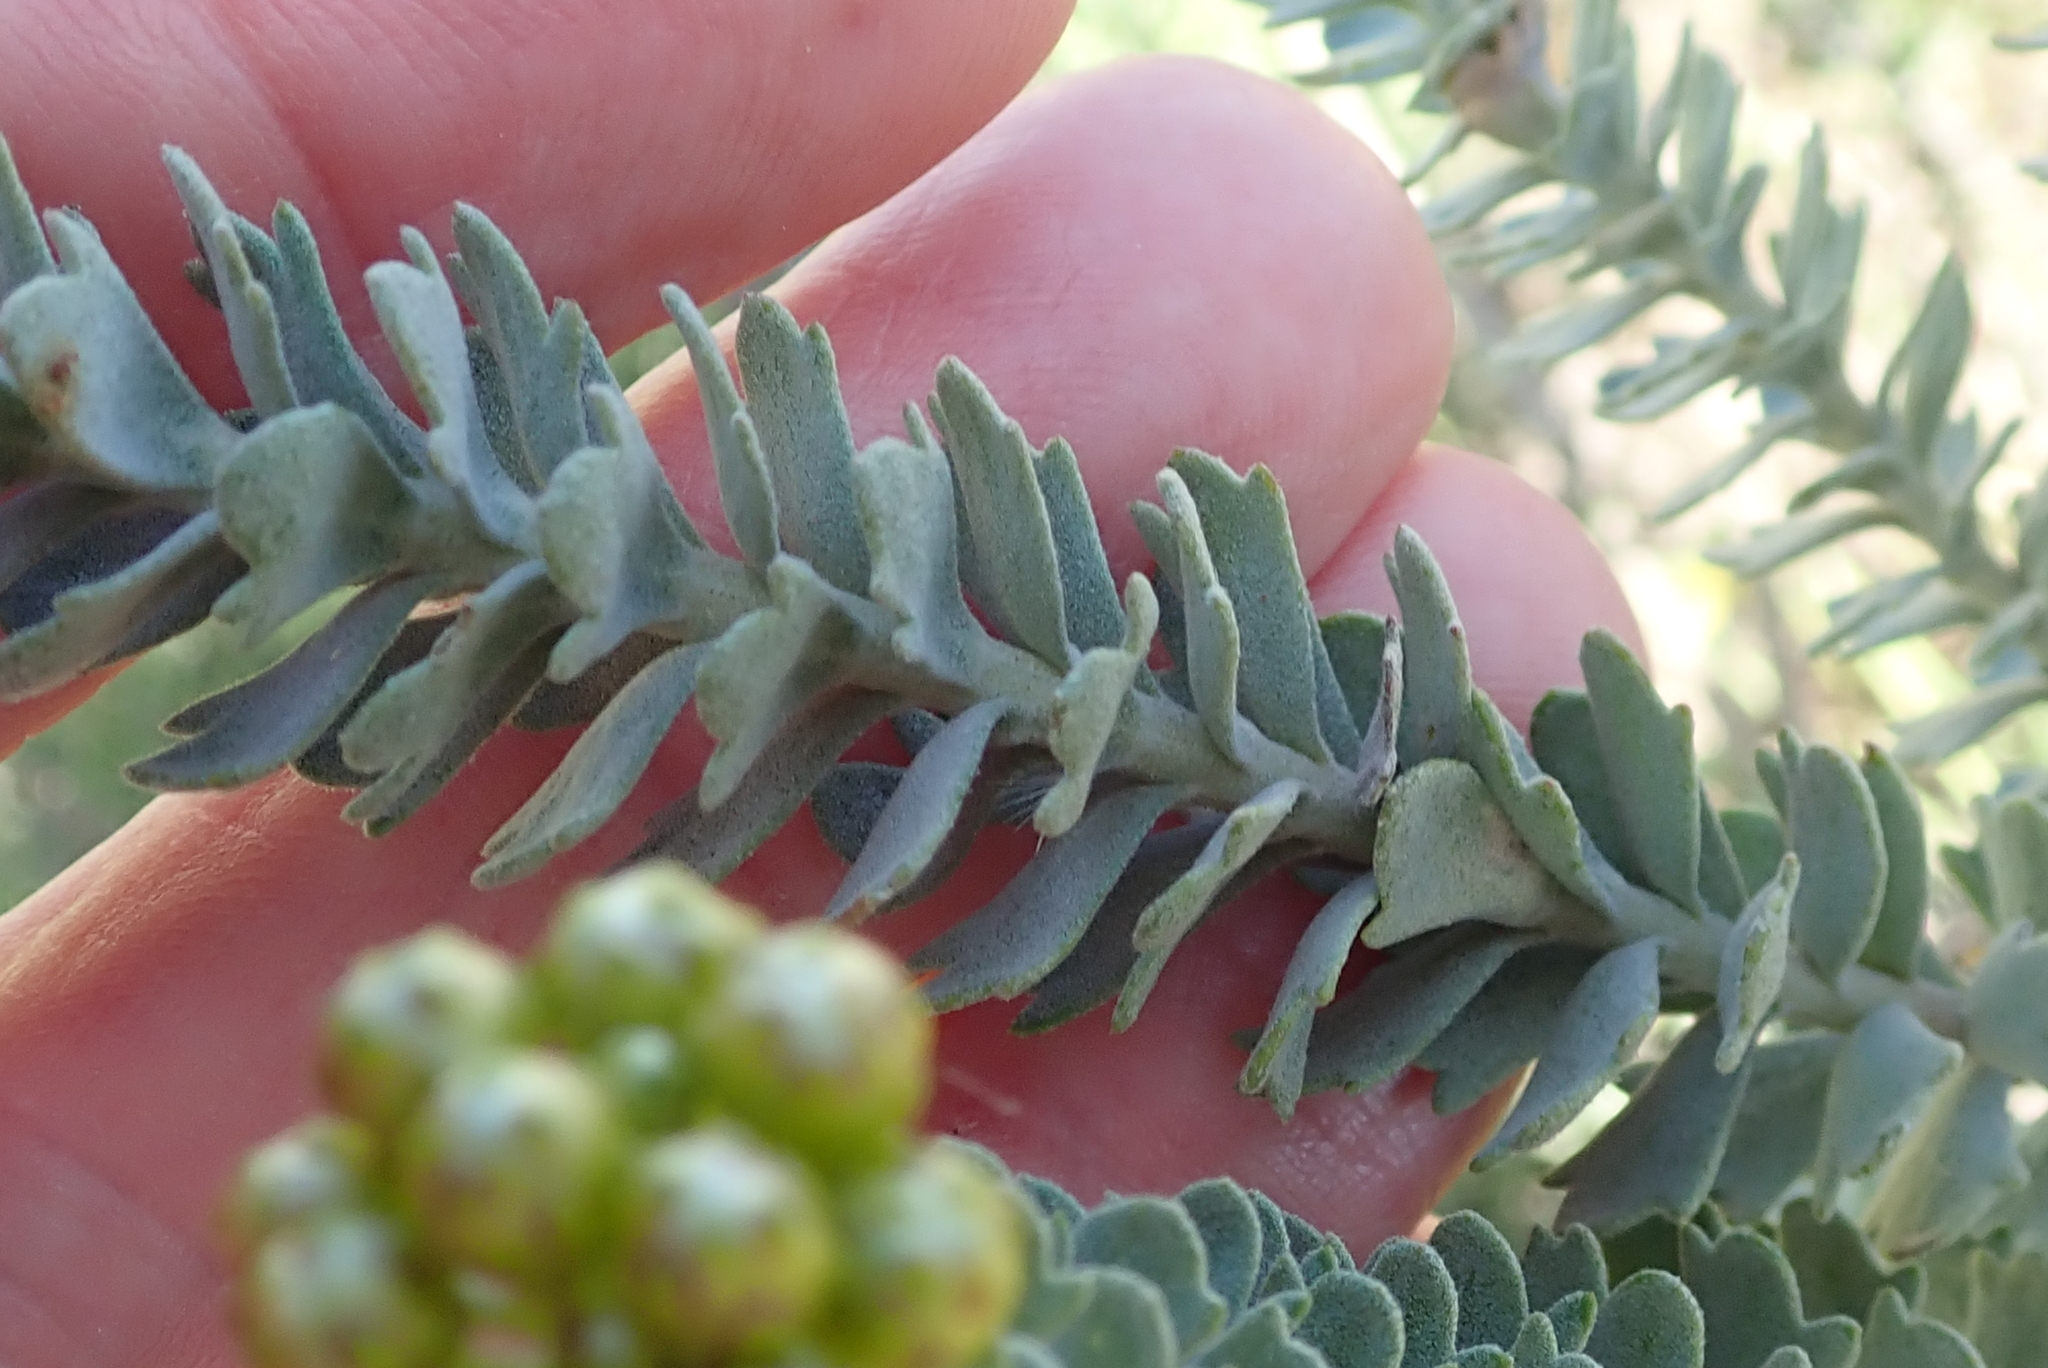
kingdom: Plantae
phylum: Tracheophyta
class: Magnoliopsida
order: Asterales
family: Asteraceae
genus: Athanasia
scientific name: Athanasia trifurcata
